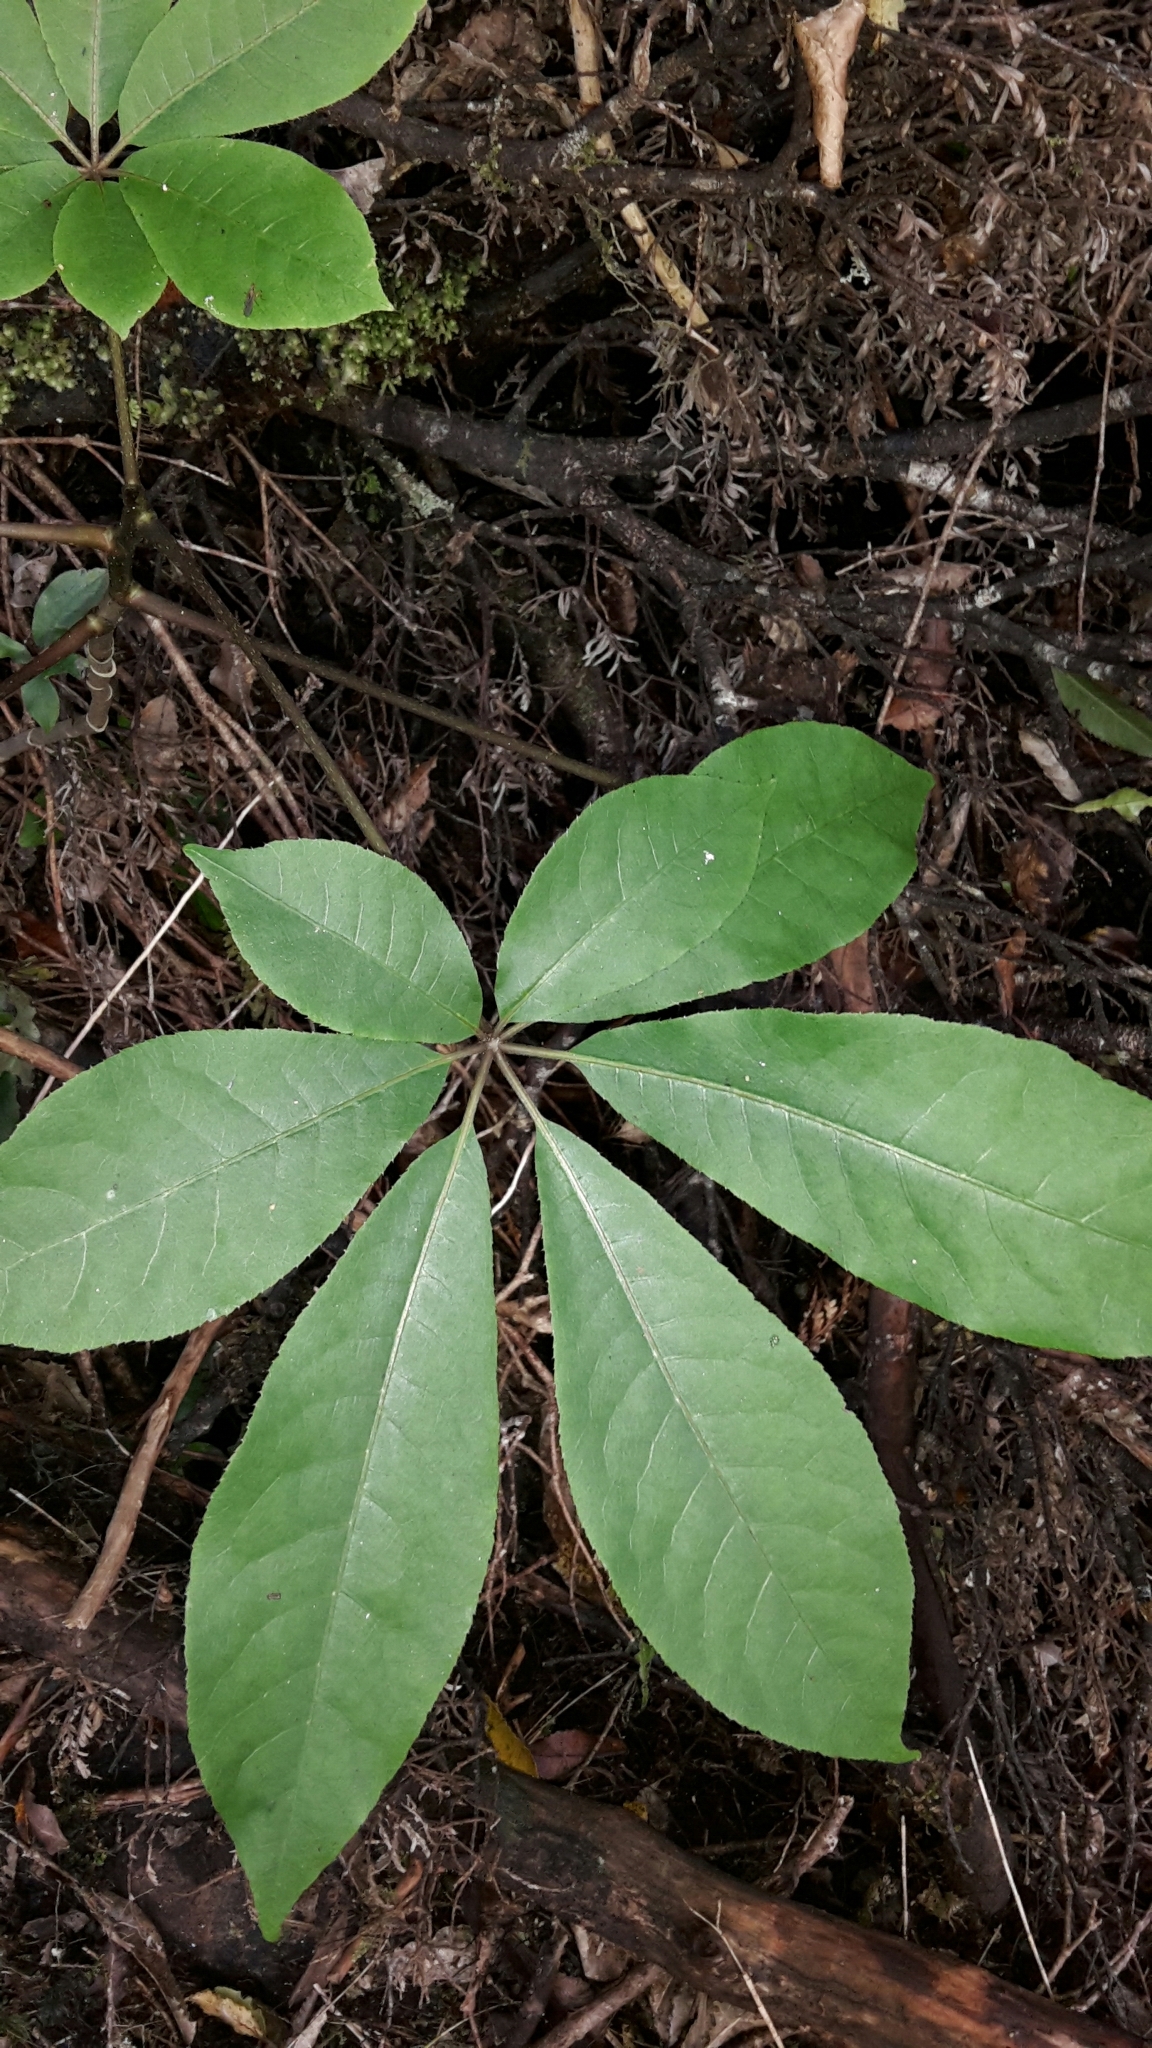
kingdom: Plantae
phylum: Tracheophyta
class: Magnoliopsida
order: Apiales
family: Araliaceae
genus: Schefflera
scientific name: Schefflera digitata
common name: Pate
